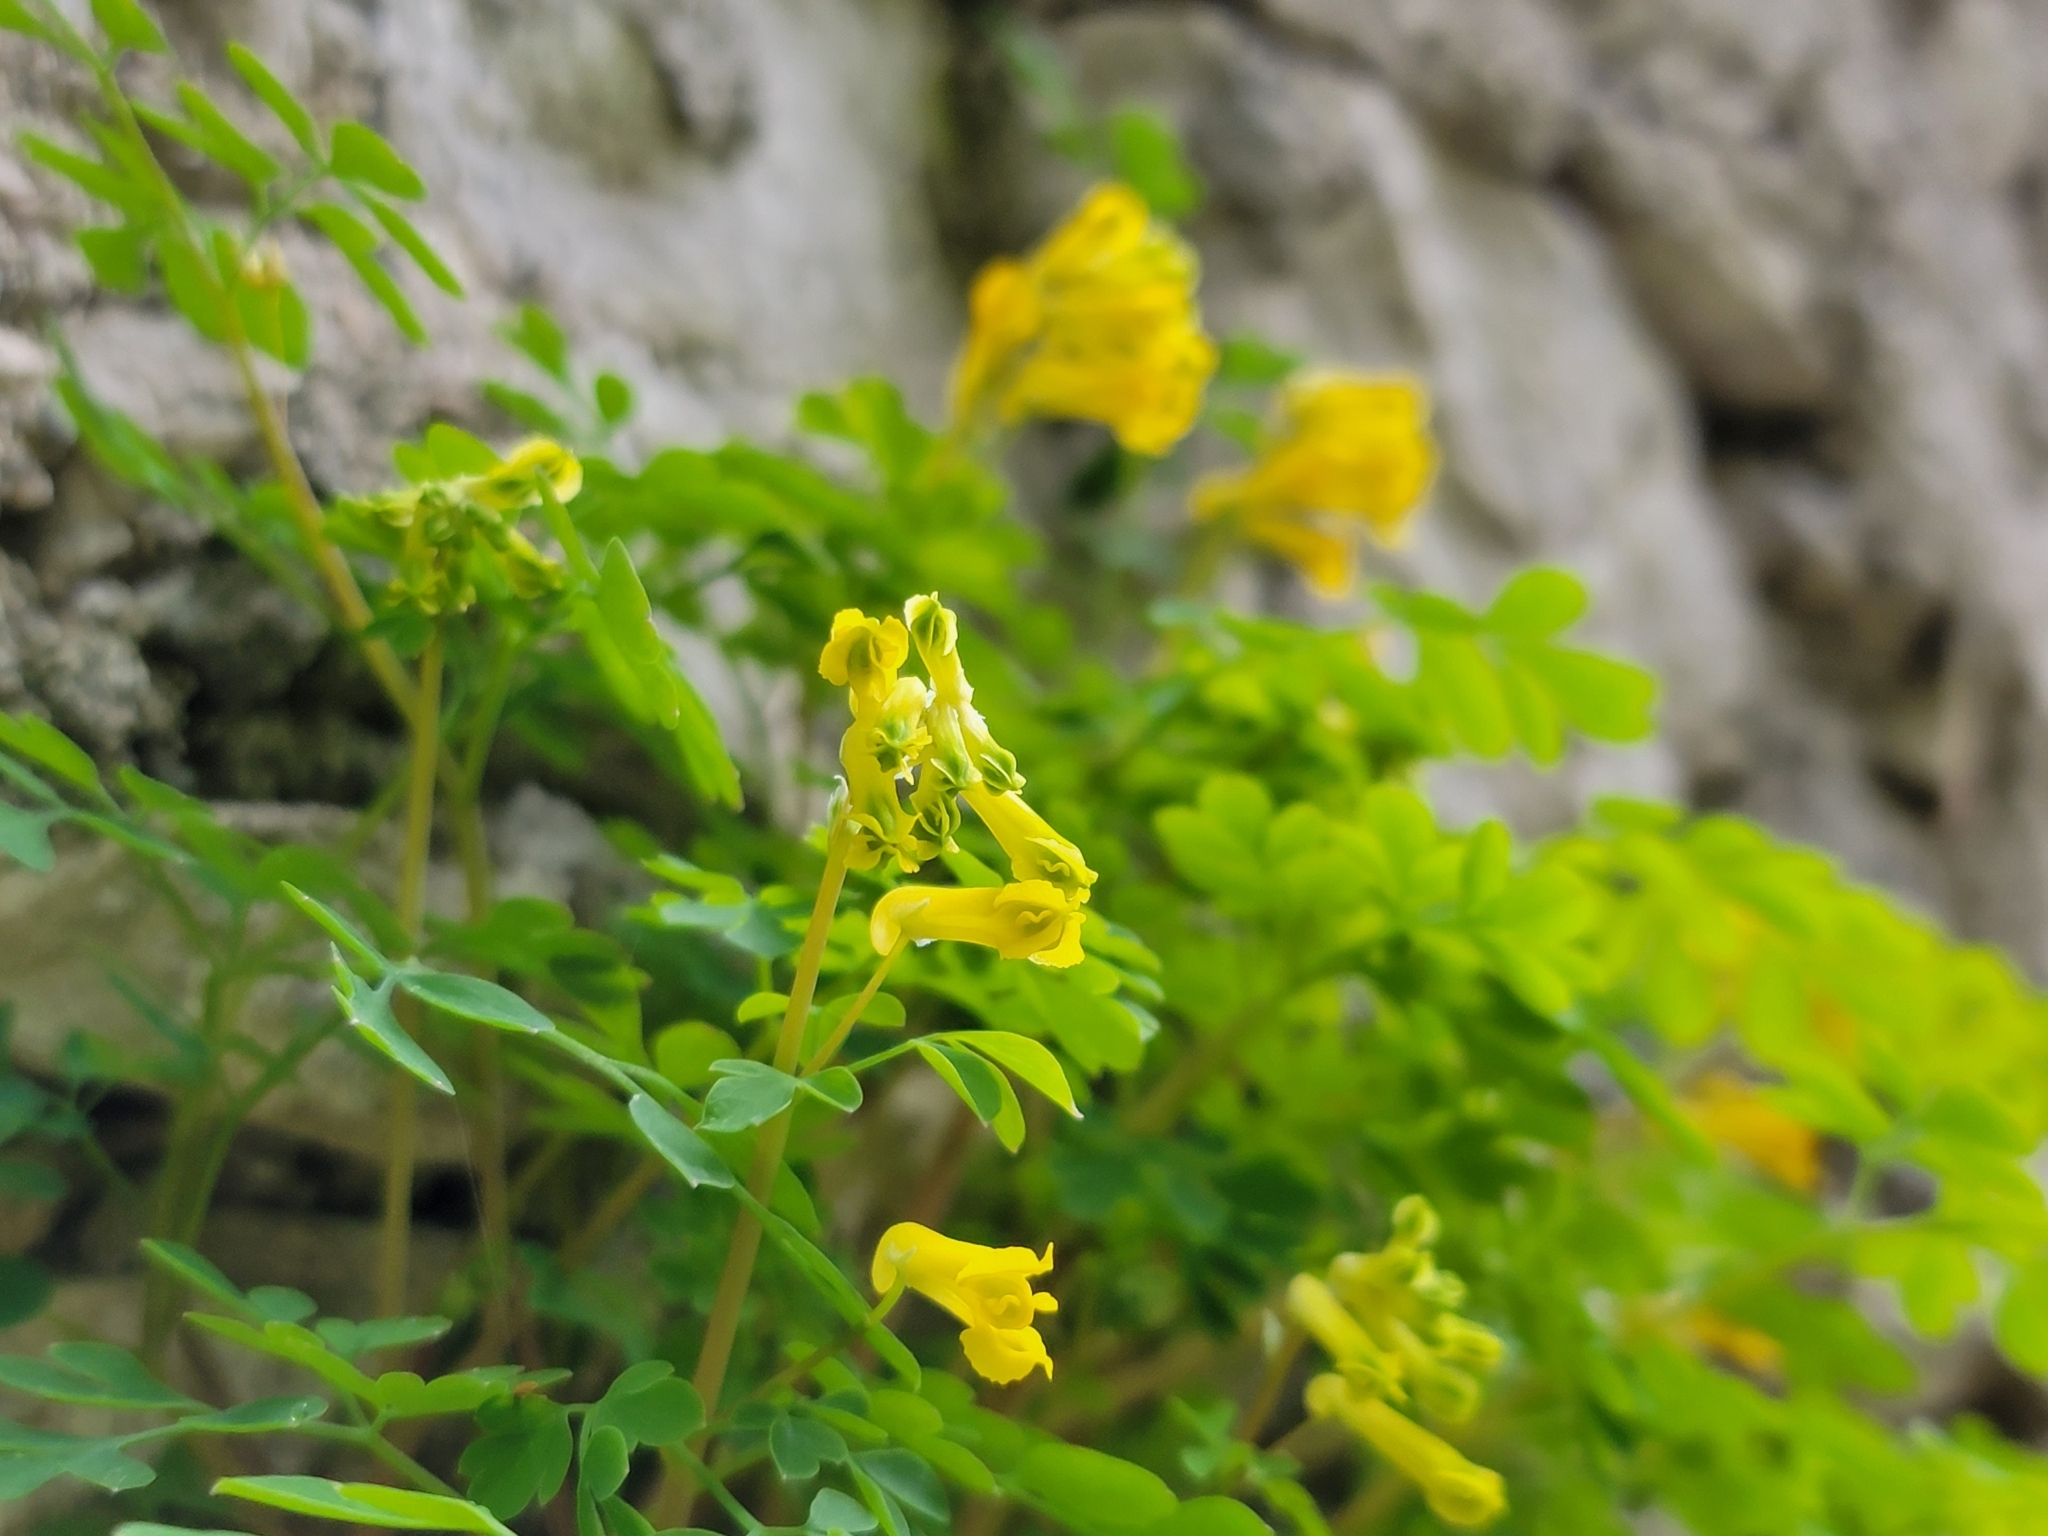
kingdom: Plantae
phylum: Tracheophyta
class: Magnoliopsida
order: Ranunculales
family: Papaveraceae
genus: Pseudofumaria
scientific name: Pseudofumaria lutea
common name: Yellow corydalis
